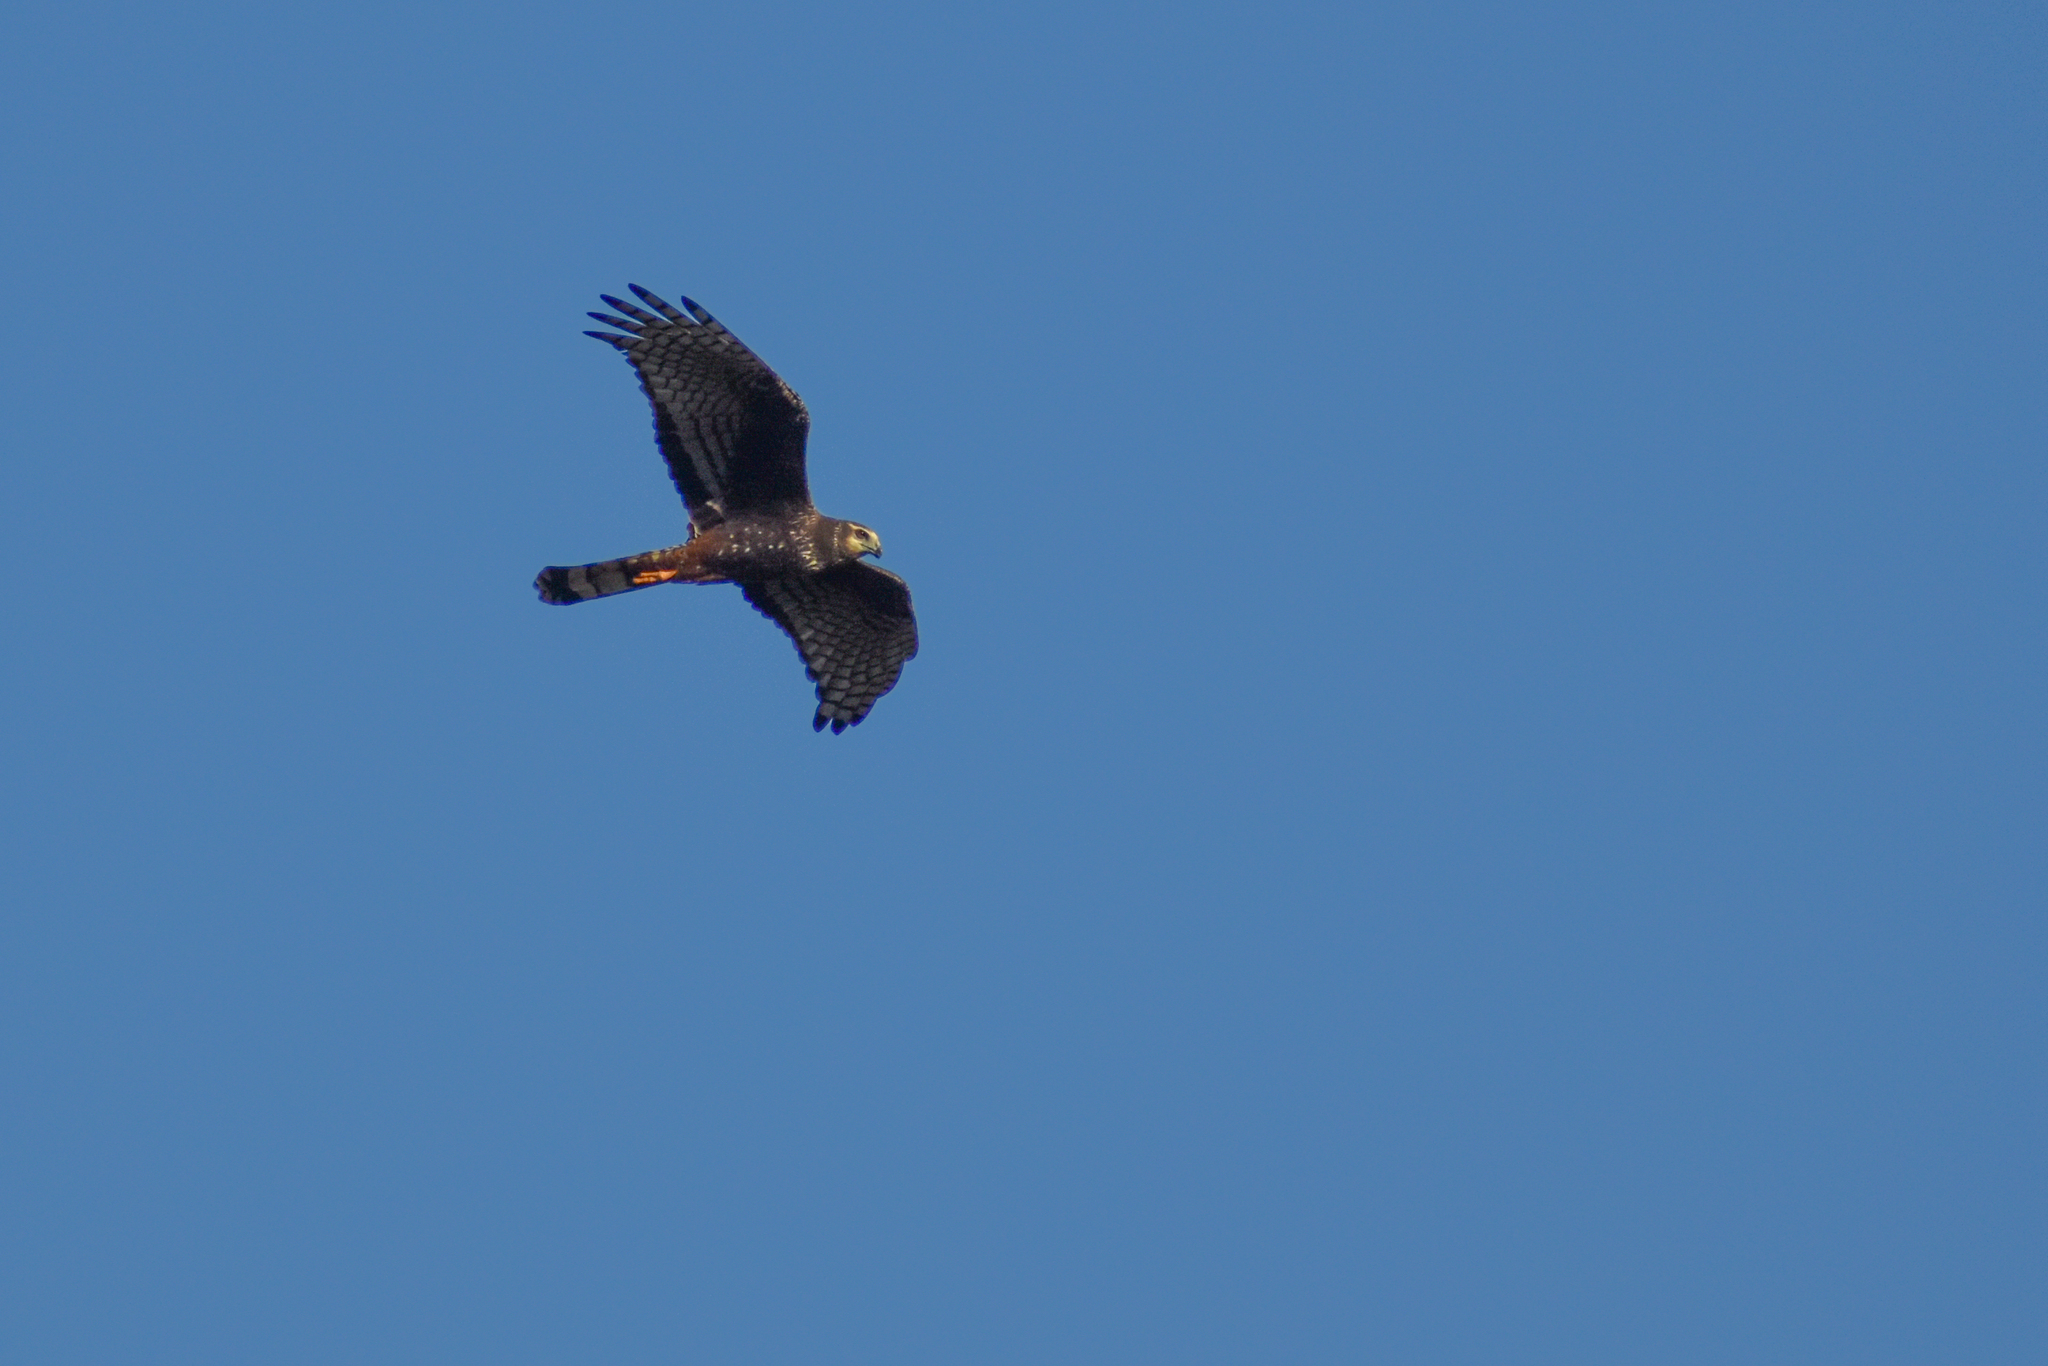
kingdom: Animalia
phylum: Chordata
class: Aves
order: Accipitriformes
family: Accipitridae
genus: Circus
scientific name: Circus buffoni
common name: Long-winged harrier
